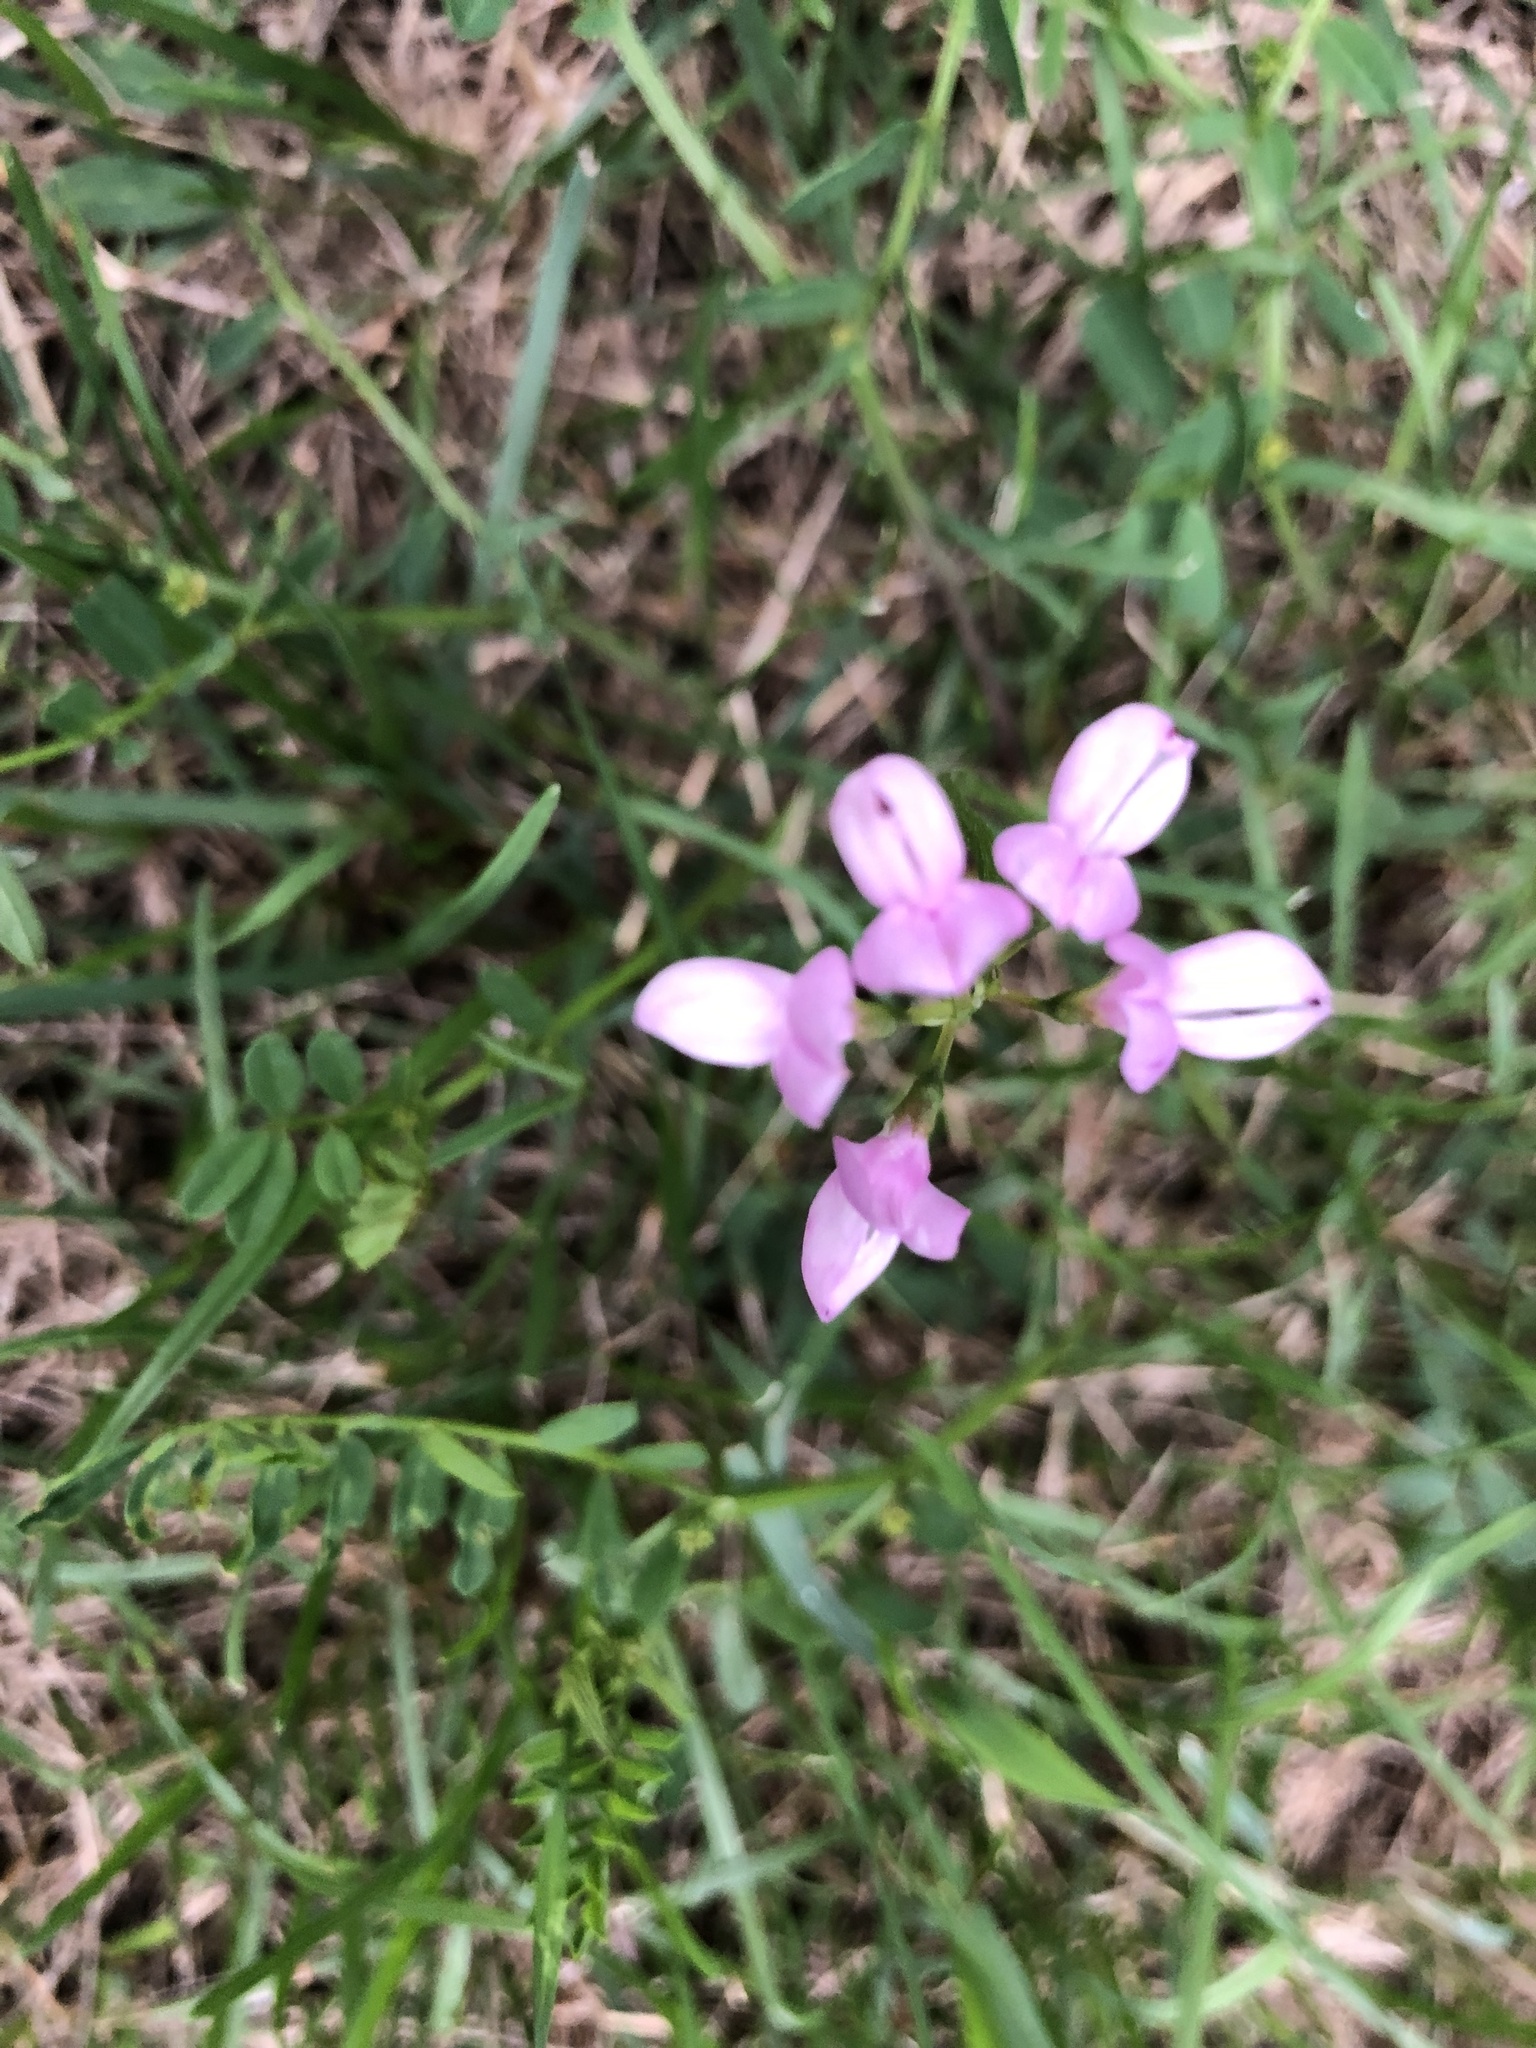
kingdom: Plantae
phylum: Tracheophyta
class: Magnoliopsida
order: Fabales
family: Fabaceae
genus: Coronilla
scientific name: Coronilla varia
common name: Crownvetch
